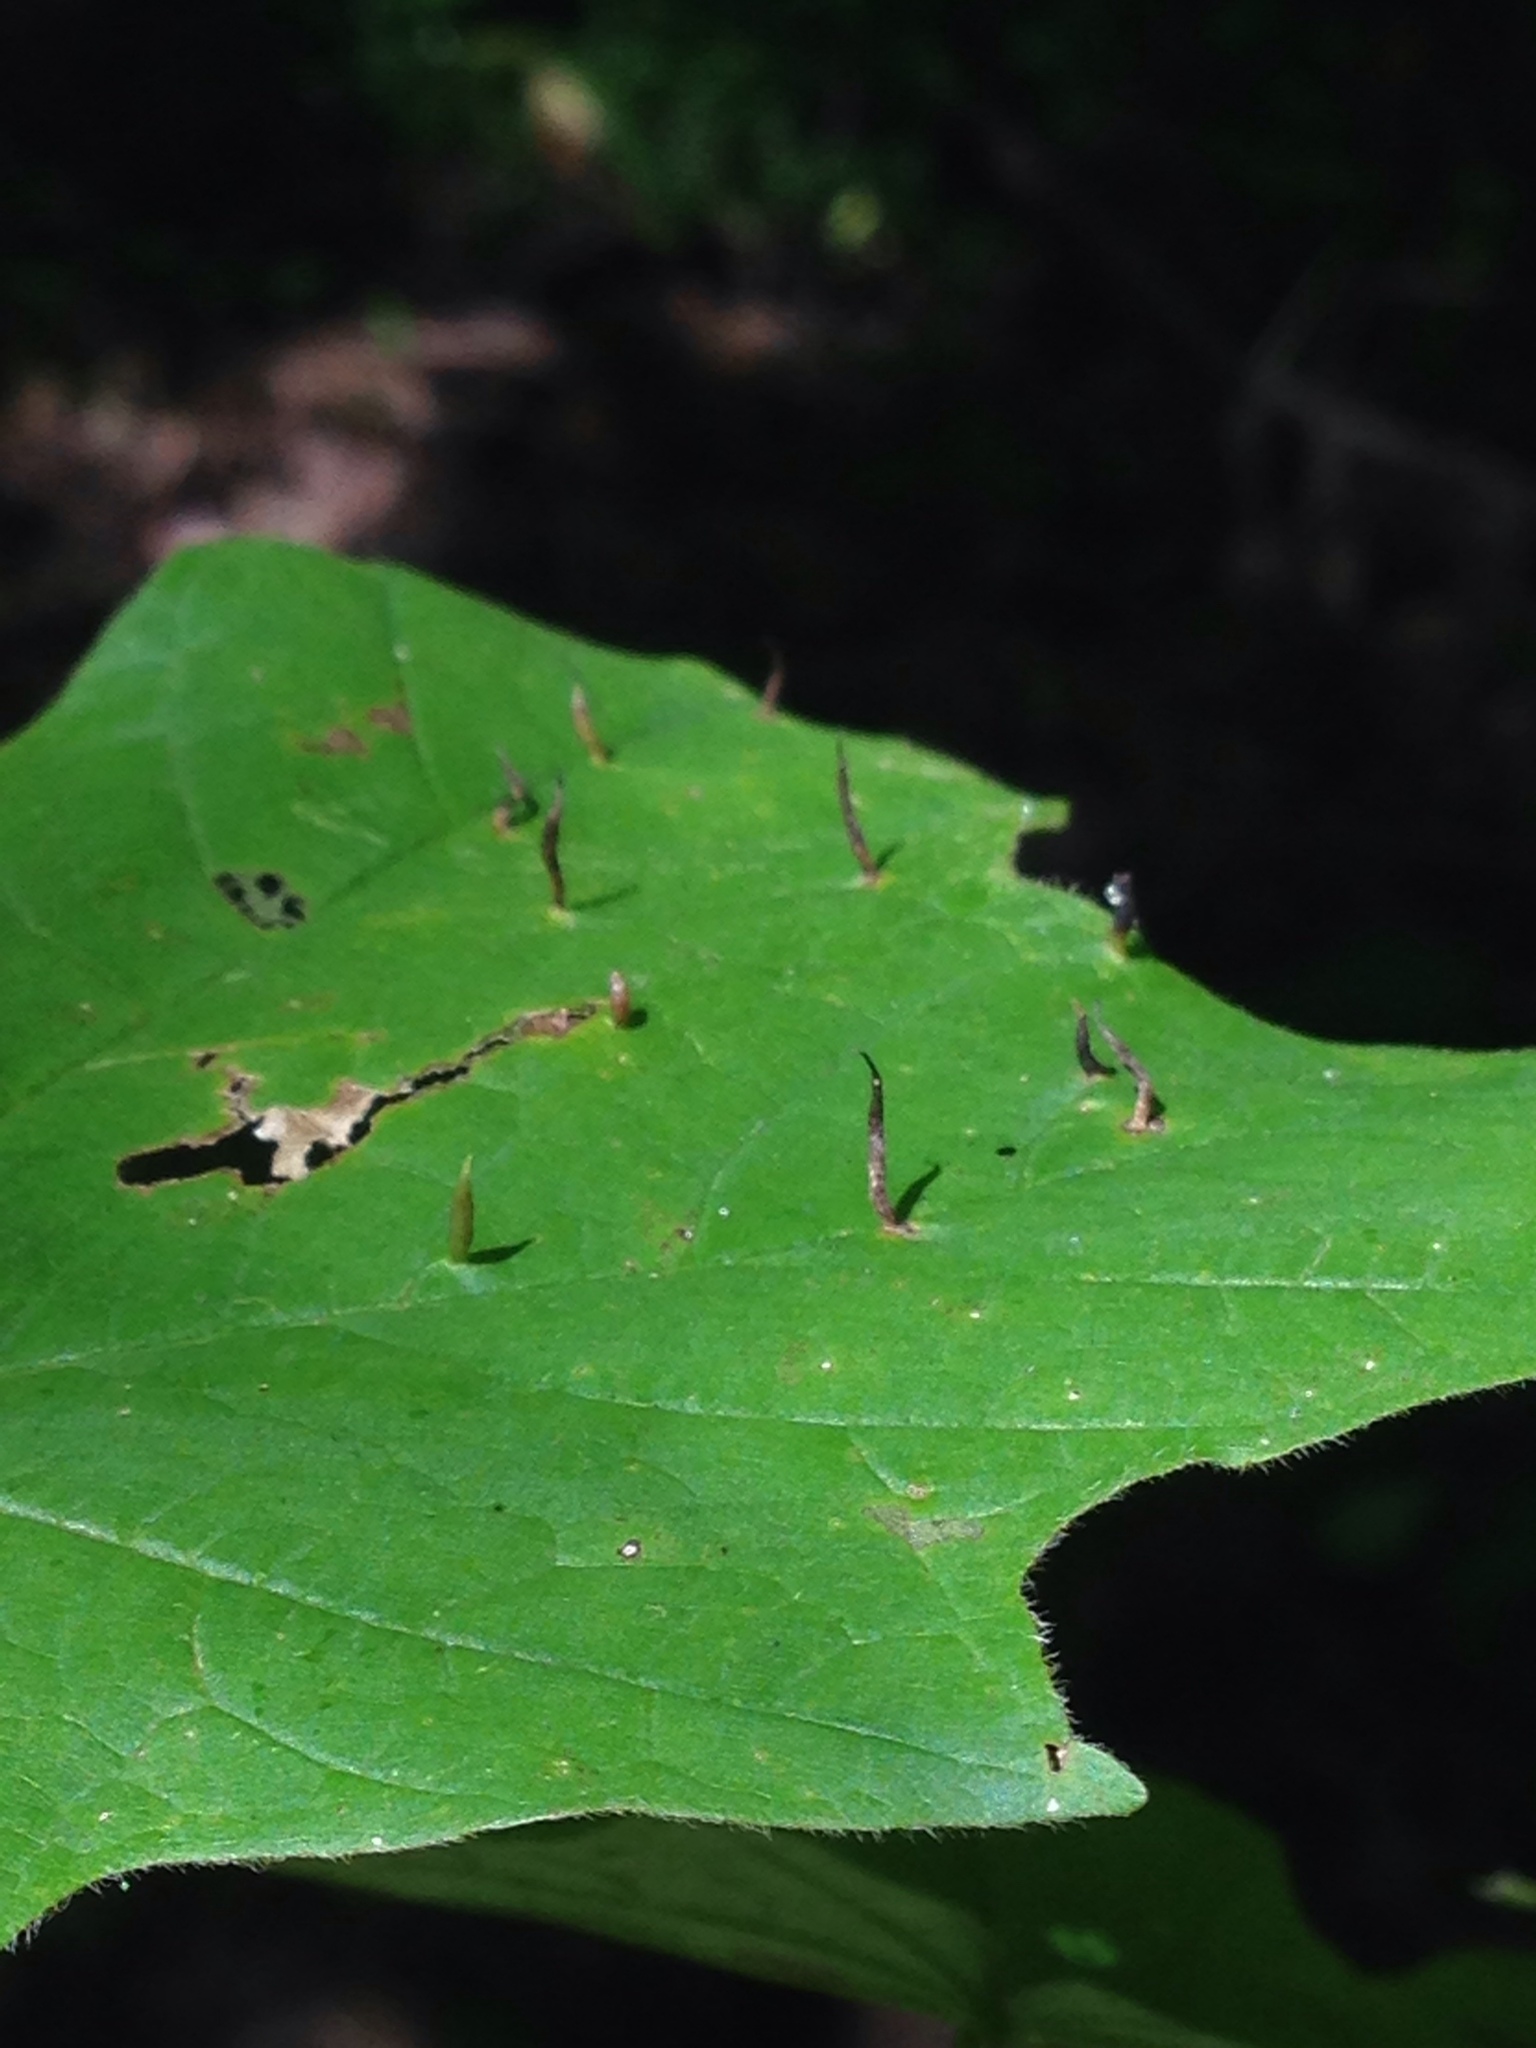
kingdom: Animalia
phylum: Arthropoda
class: Arachnida
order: Trombidiformes
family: Eriophyidae
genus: Vasates
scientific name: Vasates aceriscrumena
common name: Maple spindle gall mite
